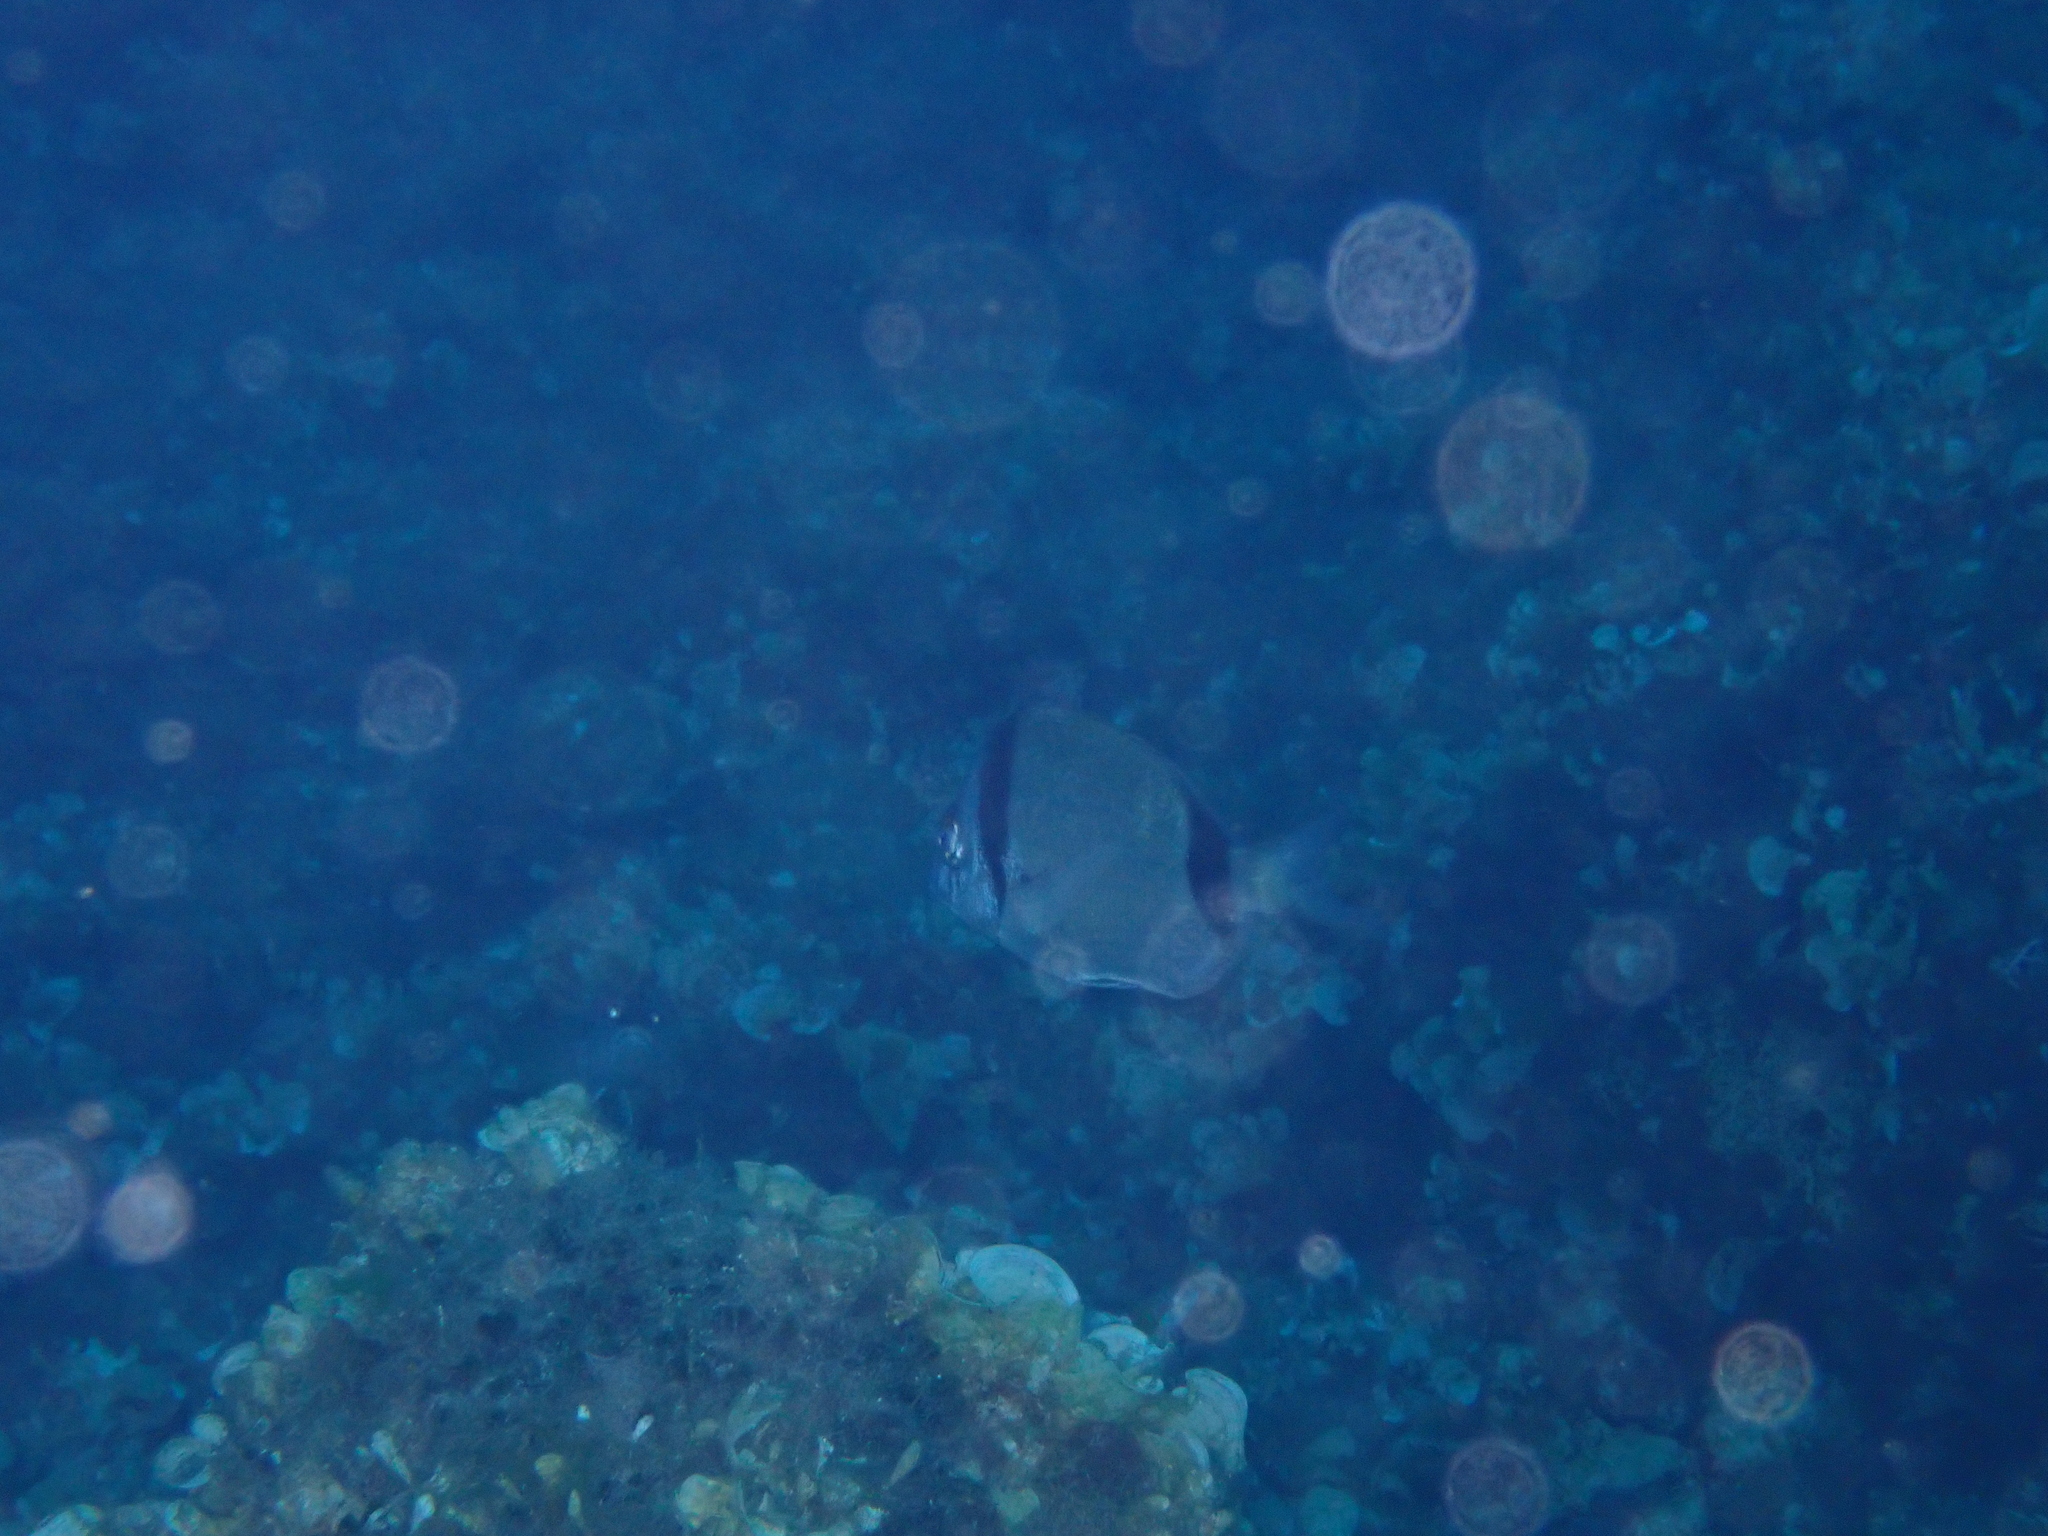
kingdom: Animalia
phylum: Chordata
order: Perciformes
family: Sparidae
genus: Diplodus
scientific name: Diplodus vulgaris
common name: Common two-banded seabream
